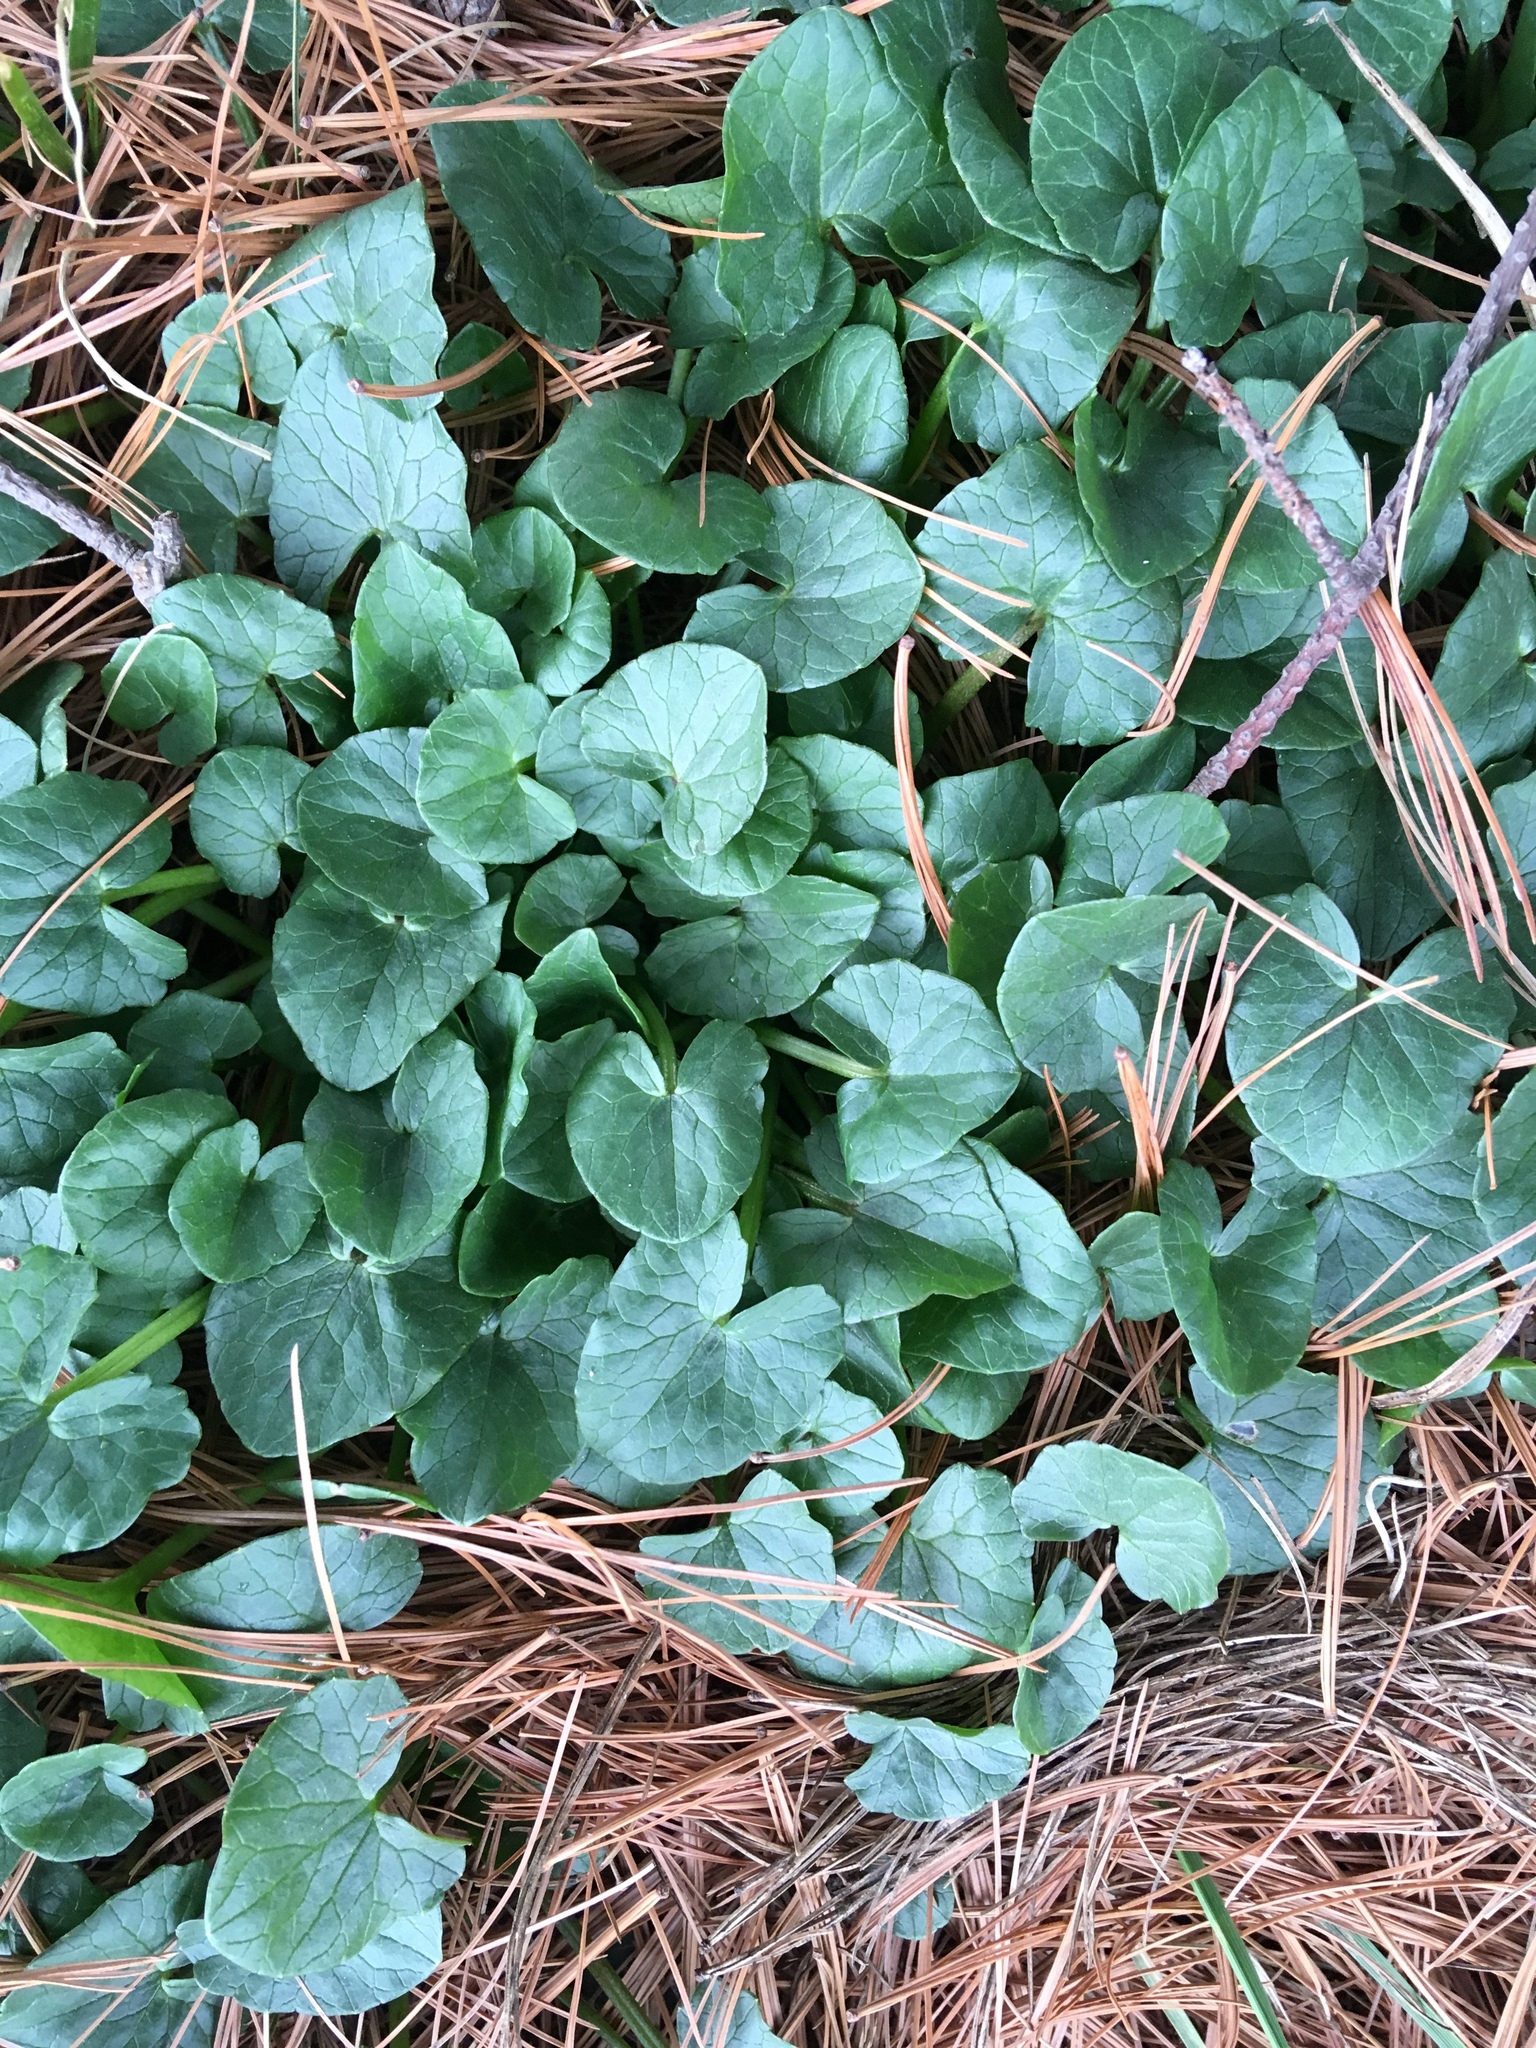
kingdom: Plantae
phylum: Tracheophyta
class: Magnoliopsida
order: Ranunculales
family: Ranunculaceae
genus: Ficaria
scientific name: Ficaria verna
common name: Lesser celandine
